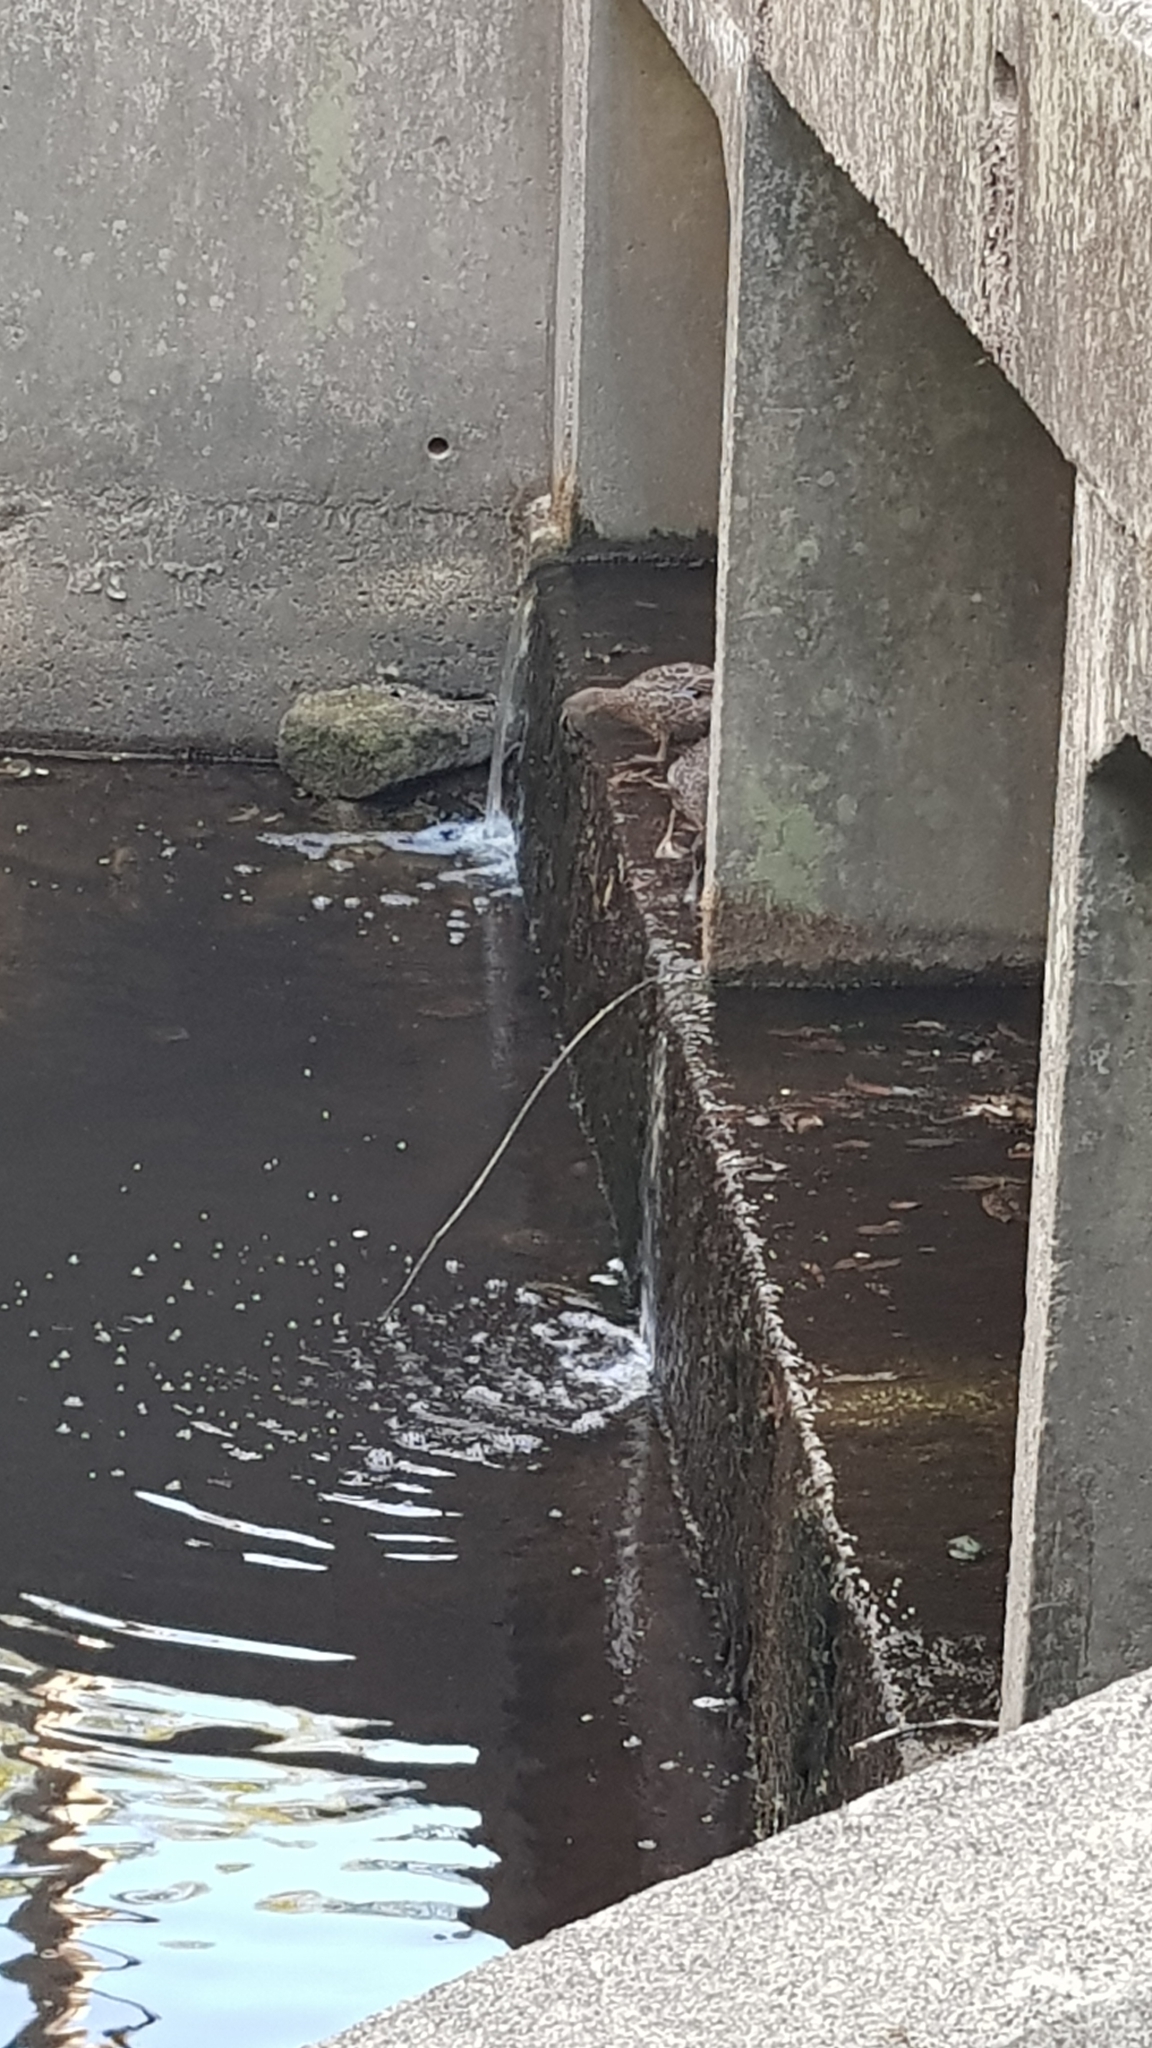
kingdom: Animalia
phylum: Chordata
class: Aves
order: Anseriformes
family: Anatidae
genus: Anas
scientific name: Anas superciliosa
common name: Pacific black duck
